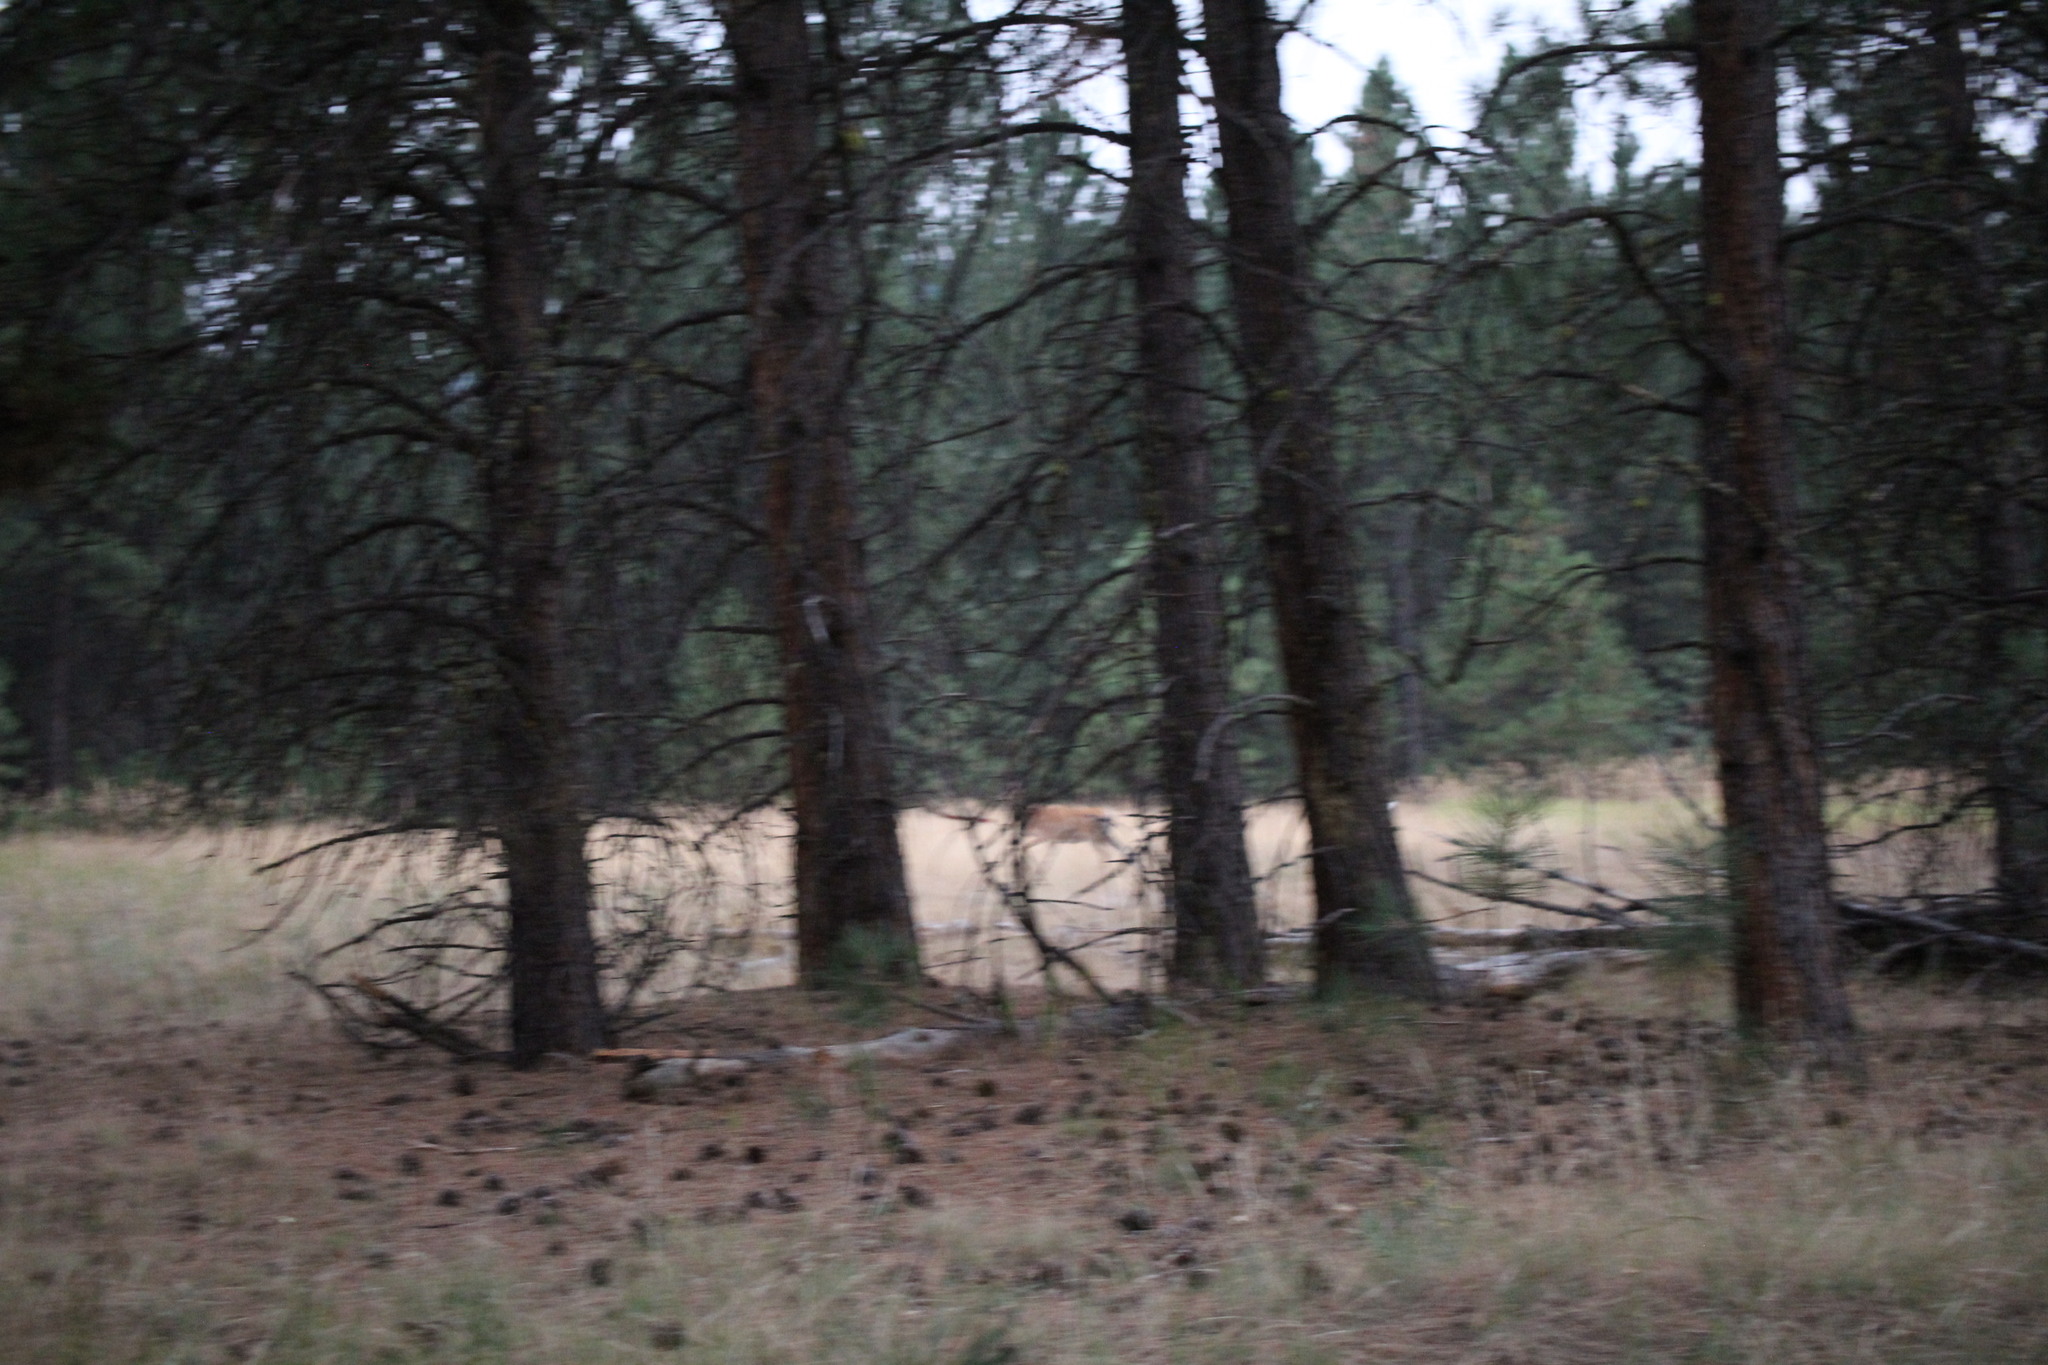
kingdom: Animalia
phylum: Chordata
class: Mammalia
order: Artiodactyla
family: Cervidae
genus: Odocoileus
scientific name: Odocoileus virginianus
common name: White-tailed deer
